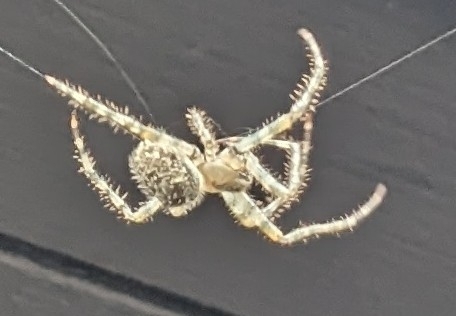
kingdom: Animalia
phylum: Arthropoda
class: Arachnida
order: Araneae
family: Araneidae
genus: Araneus
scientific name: Araneus cavaticus
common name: Barn orbweaver
